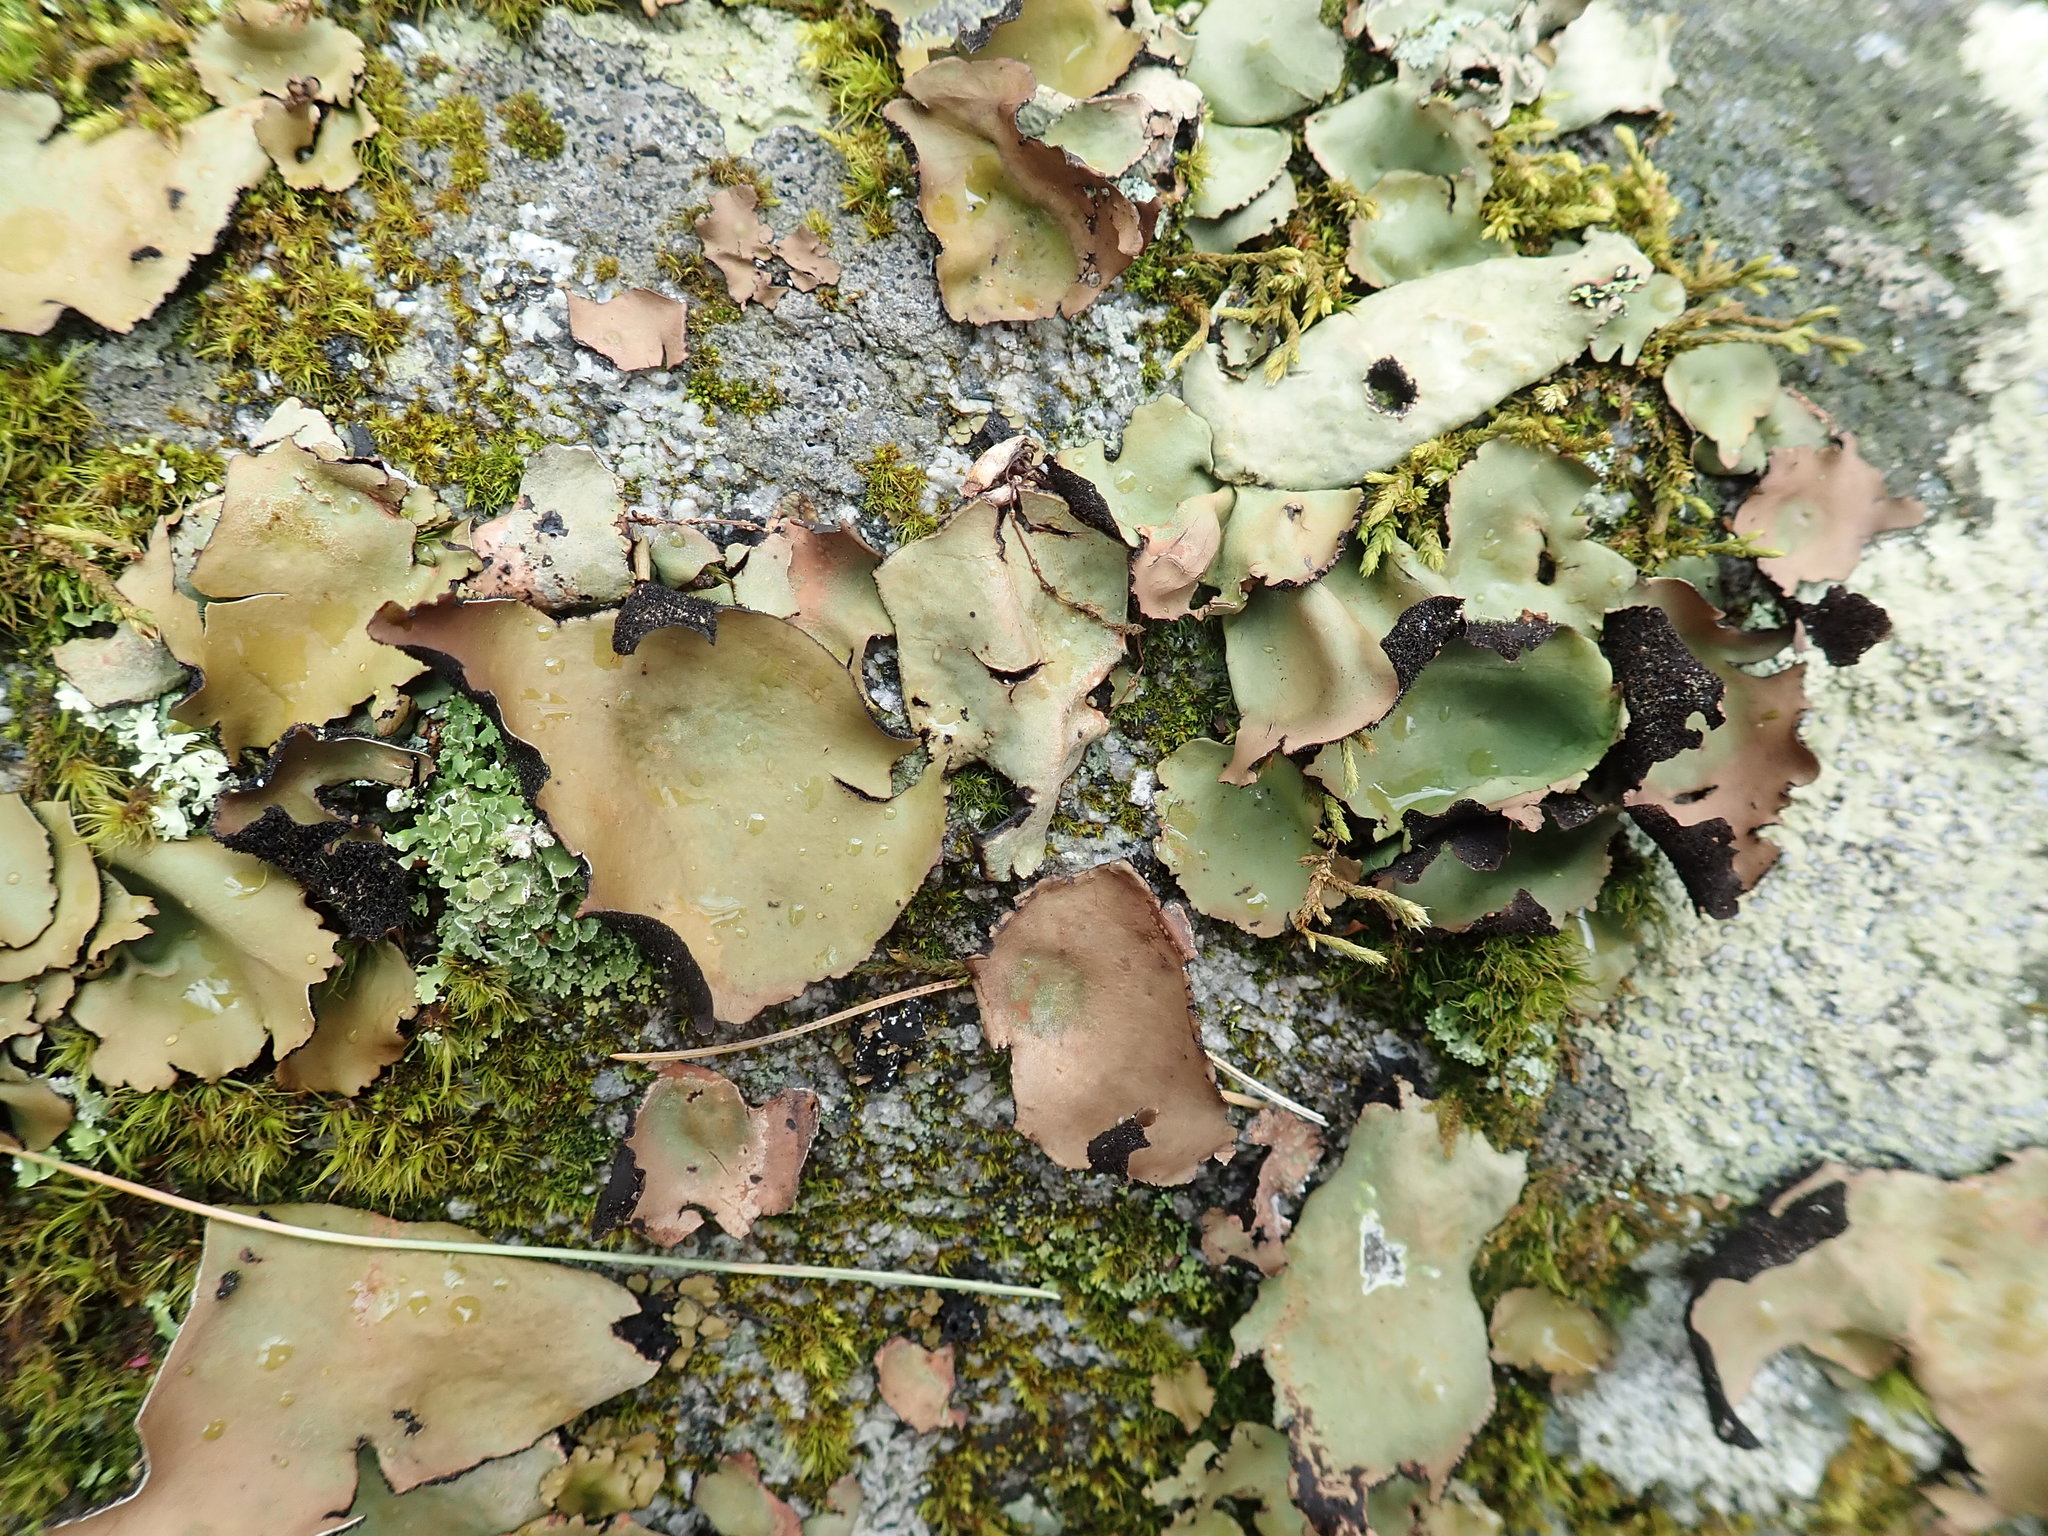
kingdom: Fungi
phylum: Ascomycota
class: Lecanoromycetes
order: Umbilicariales
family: Umbilicariaceae
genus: Umbilicaria
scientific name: Umbilicaria mammulata
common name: Smooth rock tripe
